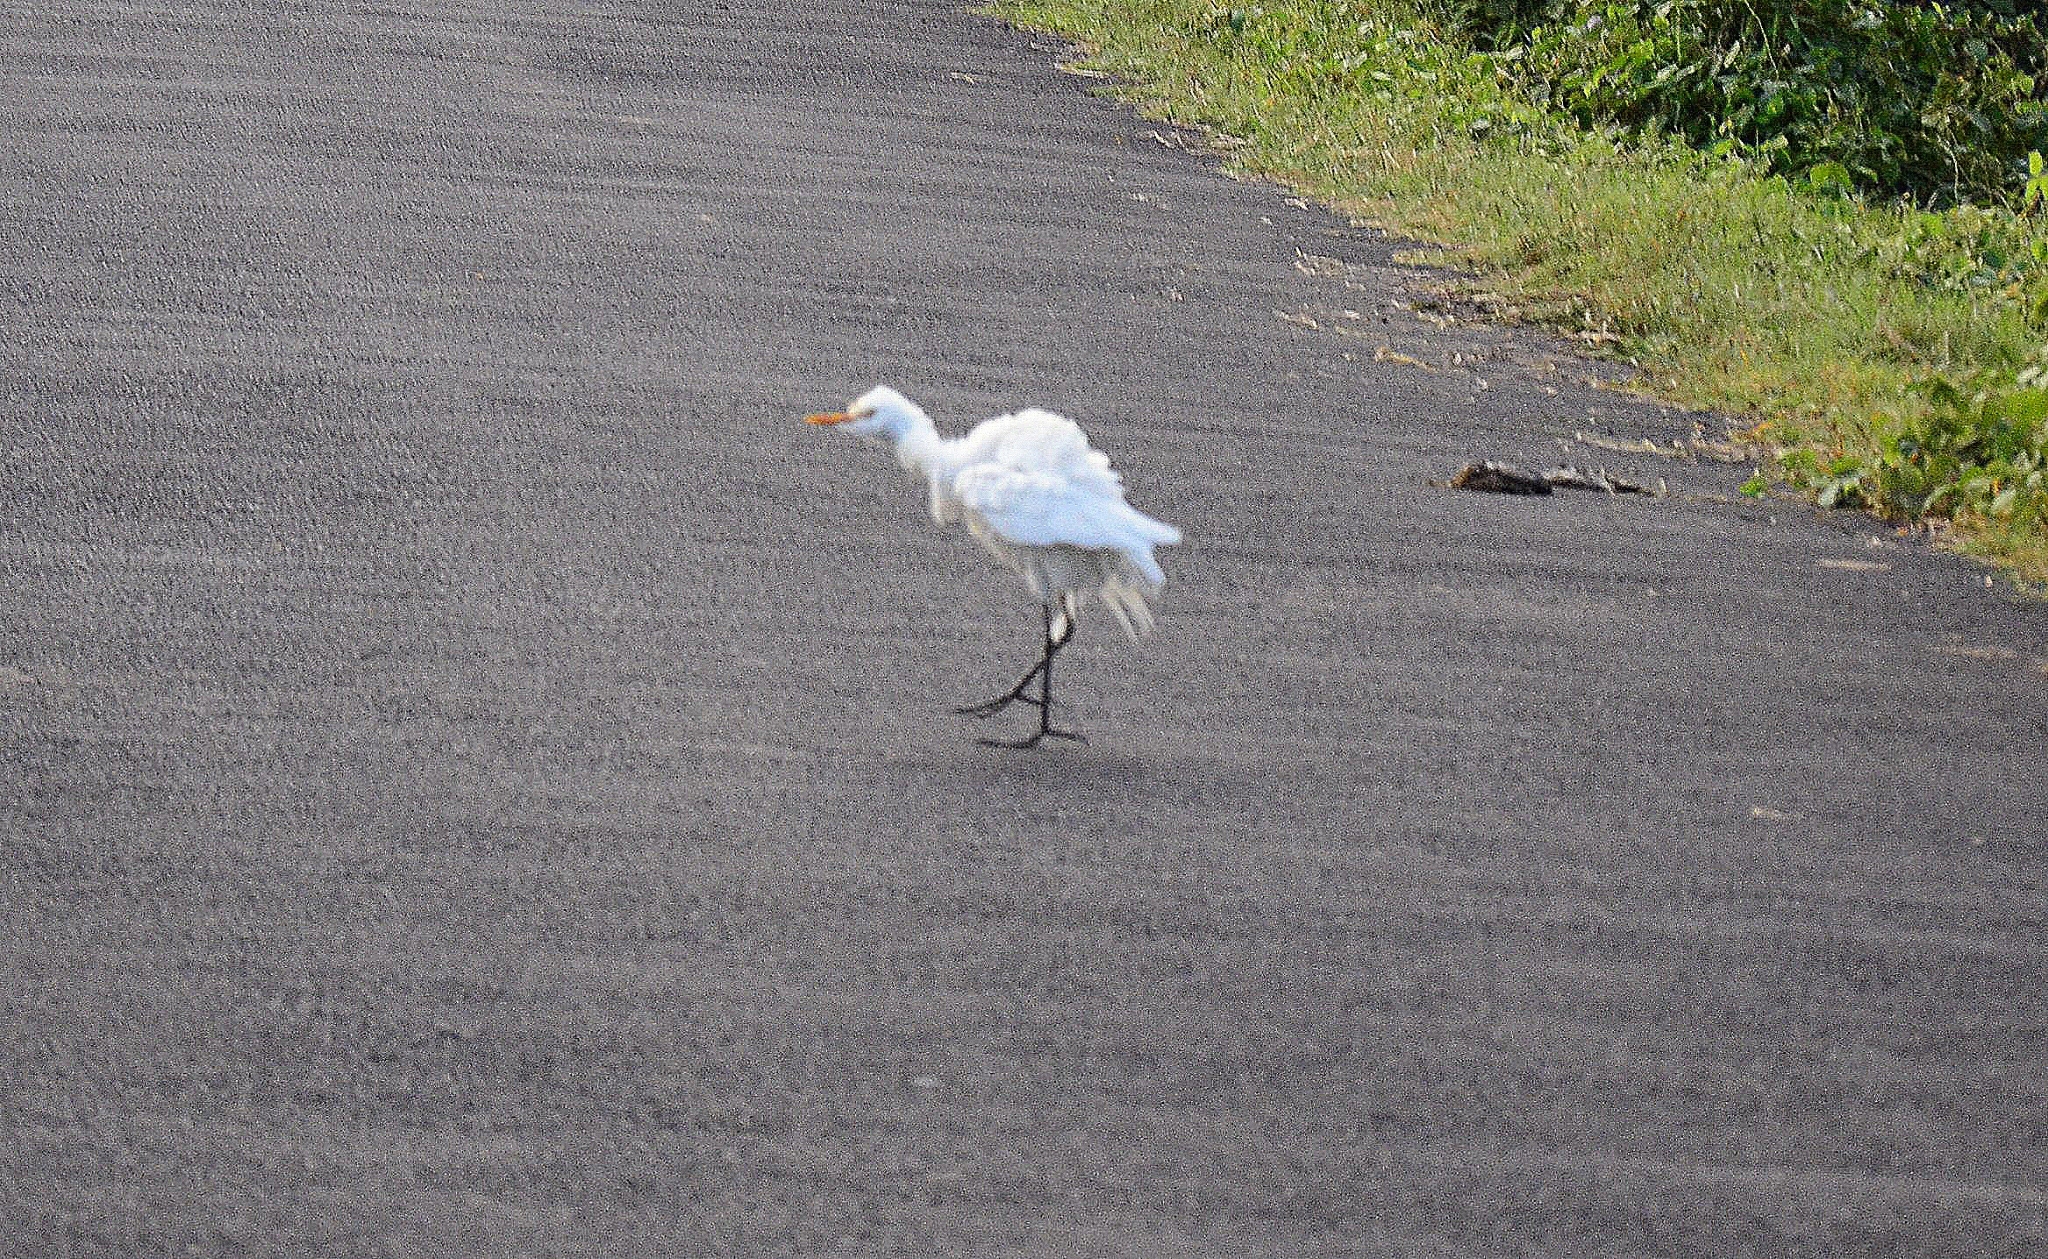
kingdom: Animalia
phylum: Chordata
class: Aves
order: Pelecaniformes
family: Ardeidae
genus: Bubulcus
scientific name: Bubulcus coromandus
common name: Eastern cattle egret
